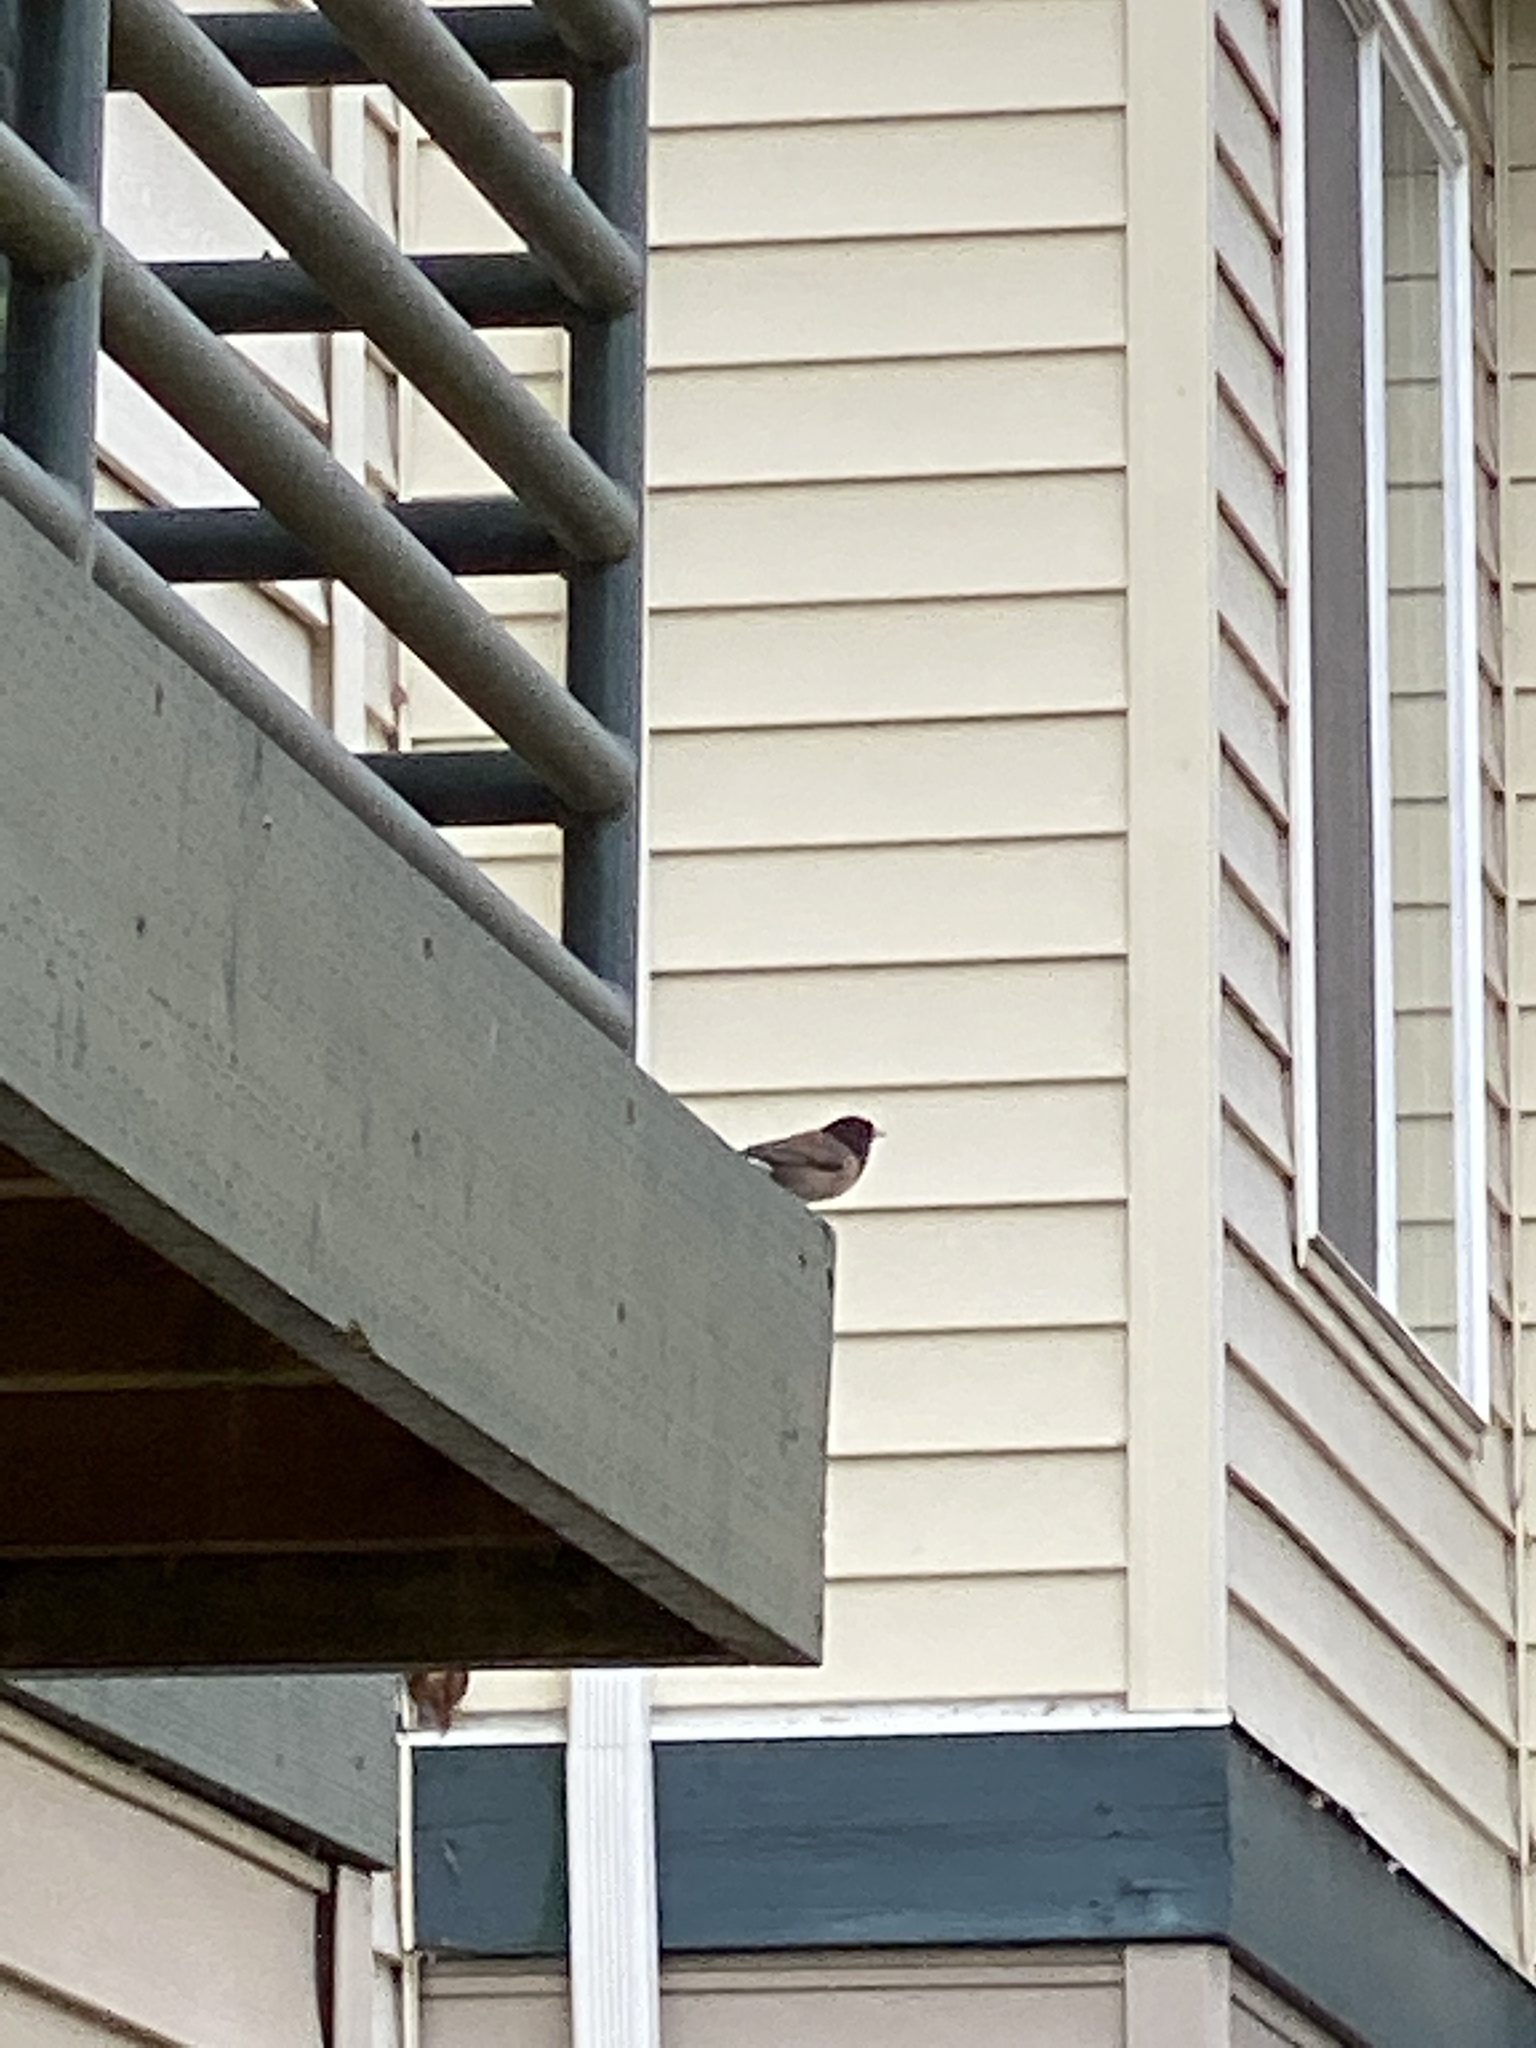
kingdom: Animalia
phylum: Chordata
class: Aves
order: Passeriformes
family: Passerellidae
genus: Junco
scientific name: Junco hyemalis
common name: Dark-eyed junco
